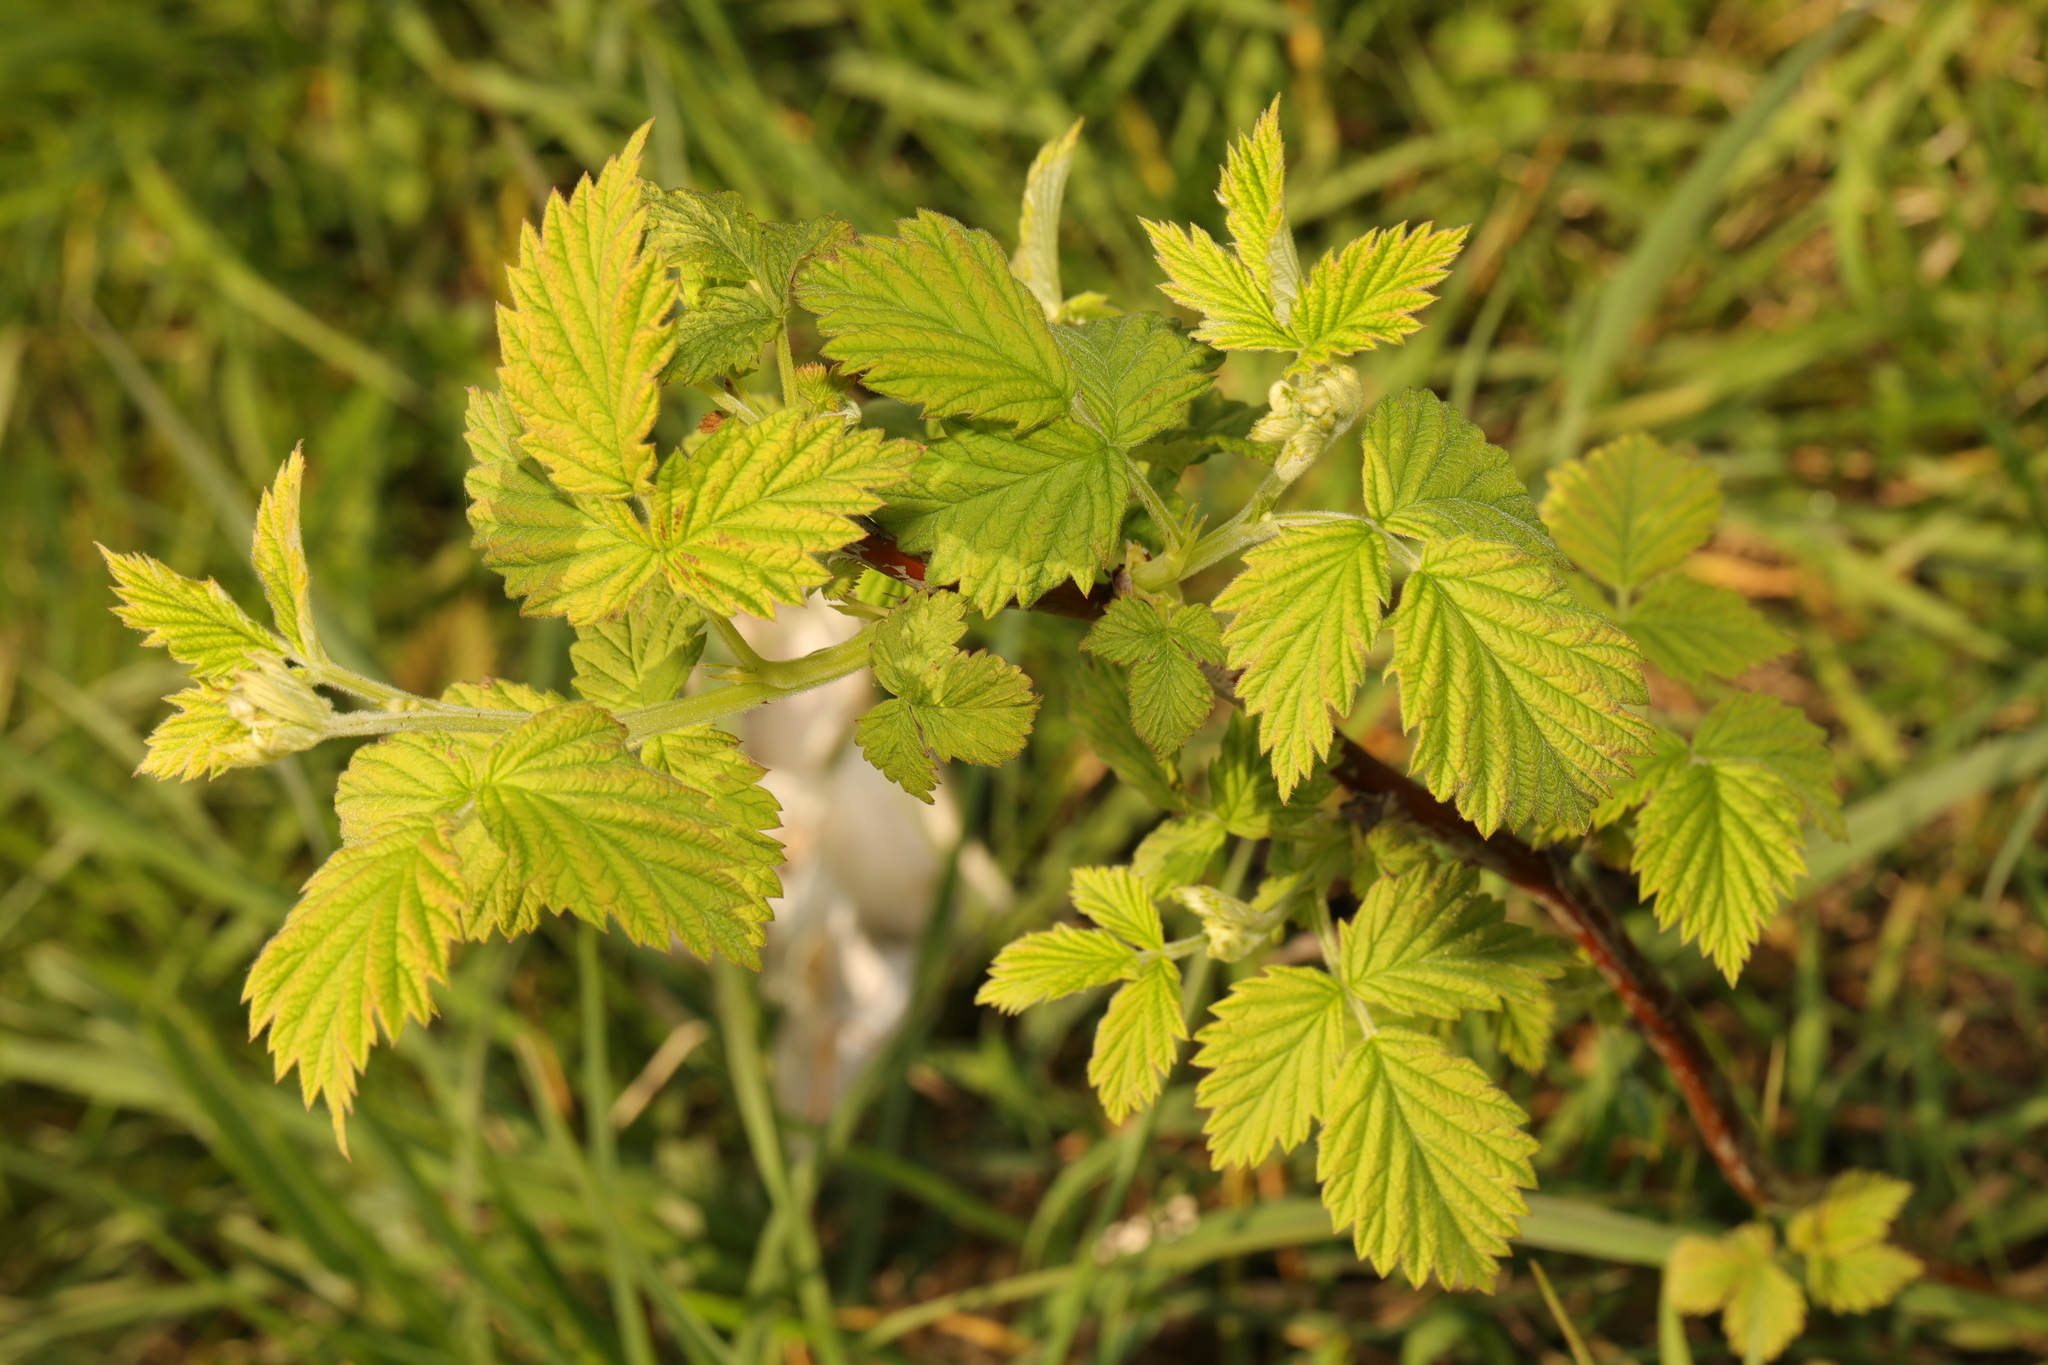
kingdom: Plantae
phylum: Tracheophyta
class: Magnoliopsida
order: Rosales
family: Rosaceae
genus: Rubus
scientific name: Rubus idaeus
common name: Raspberry
